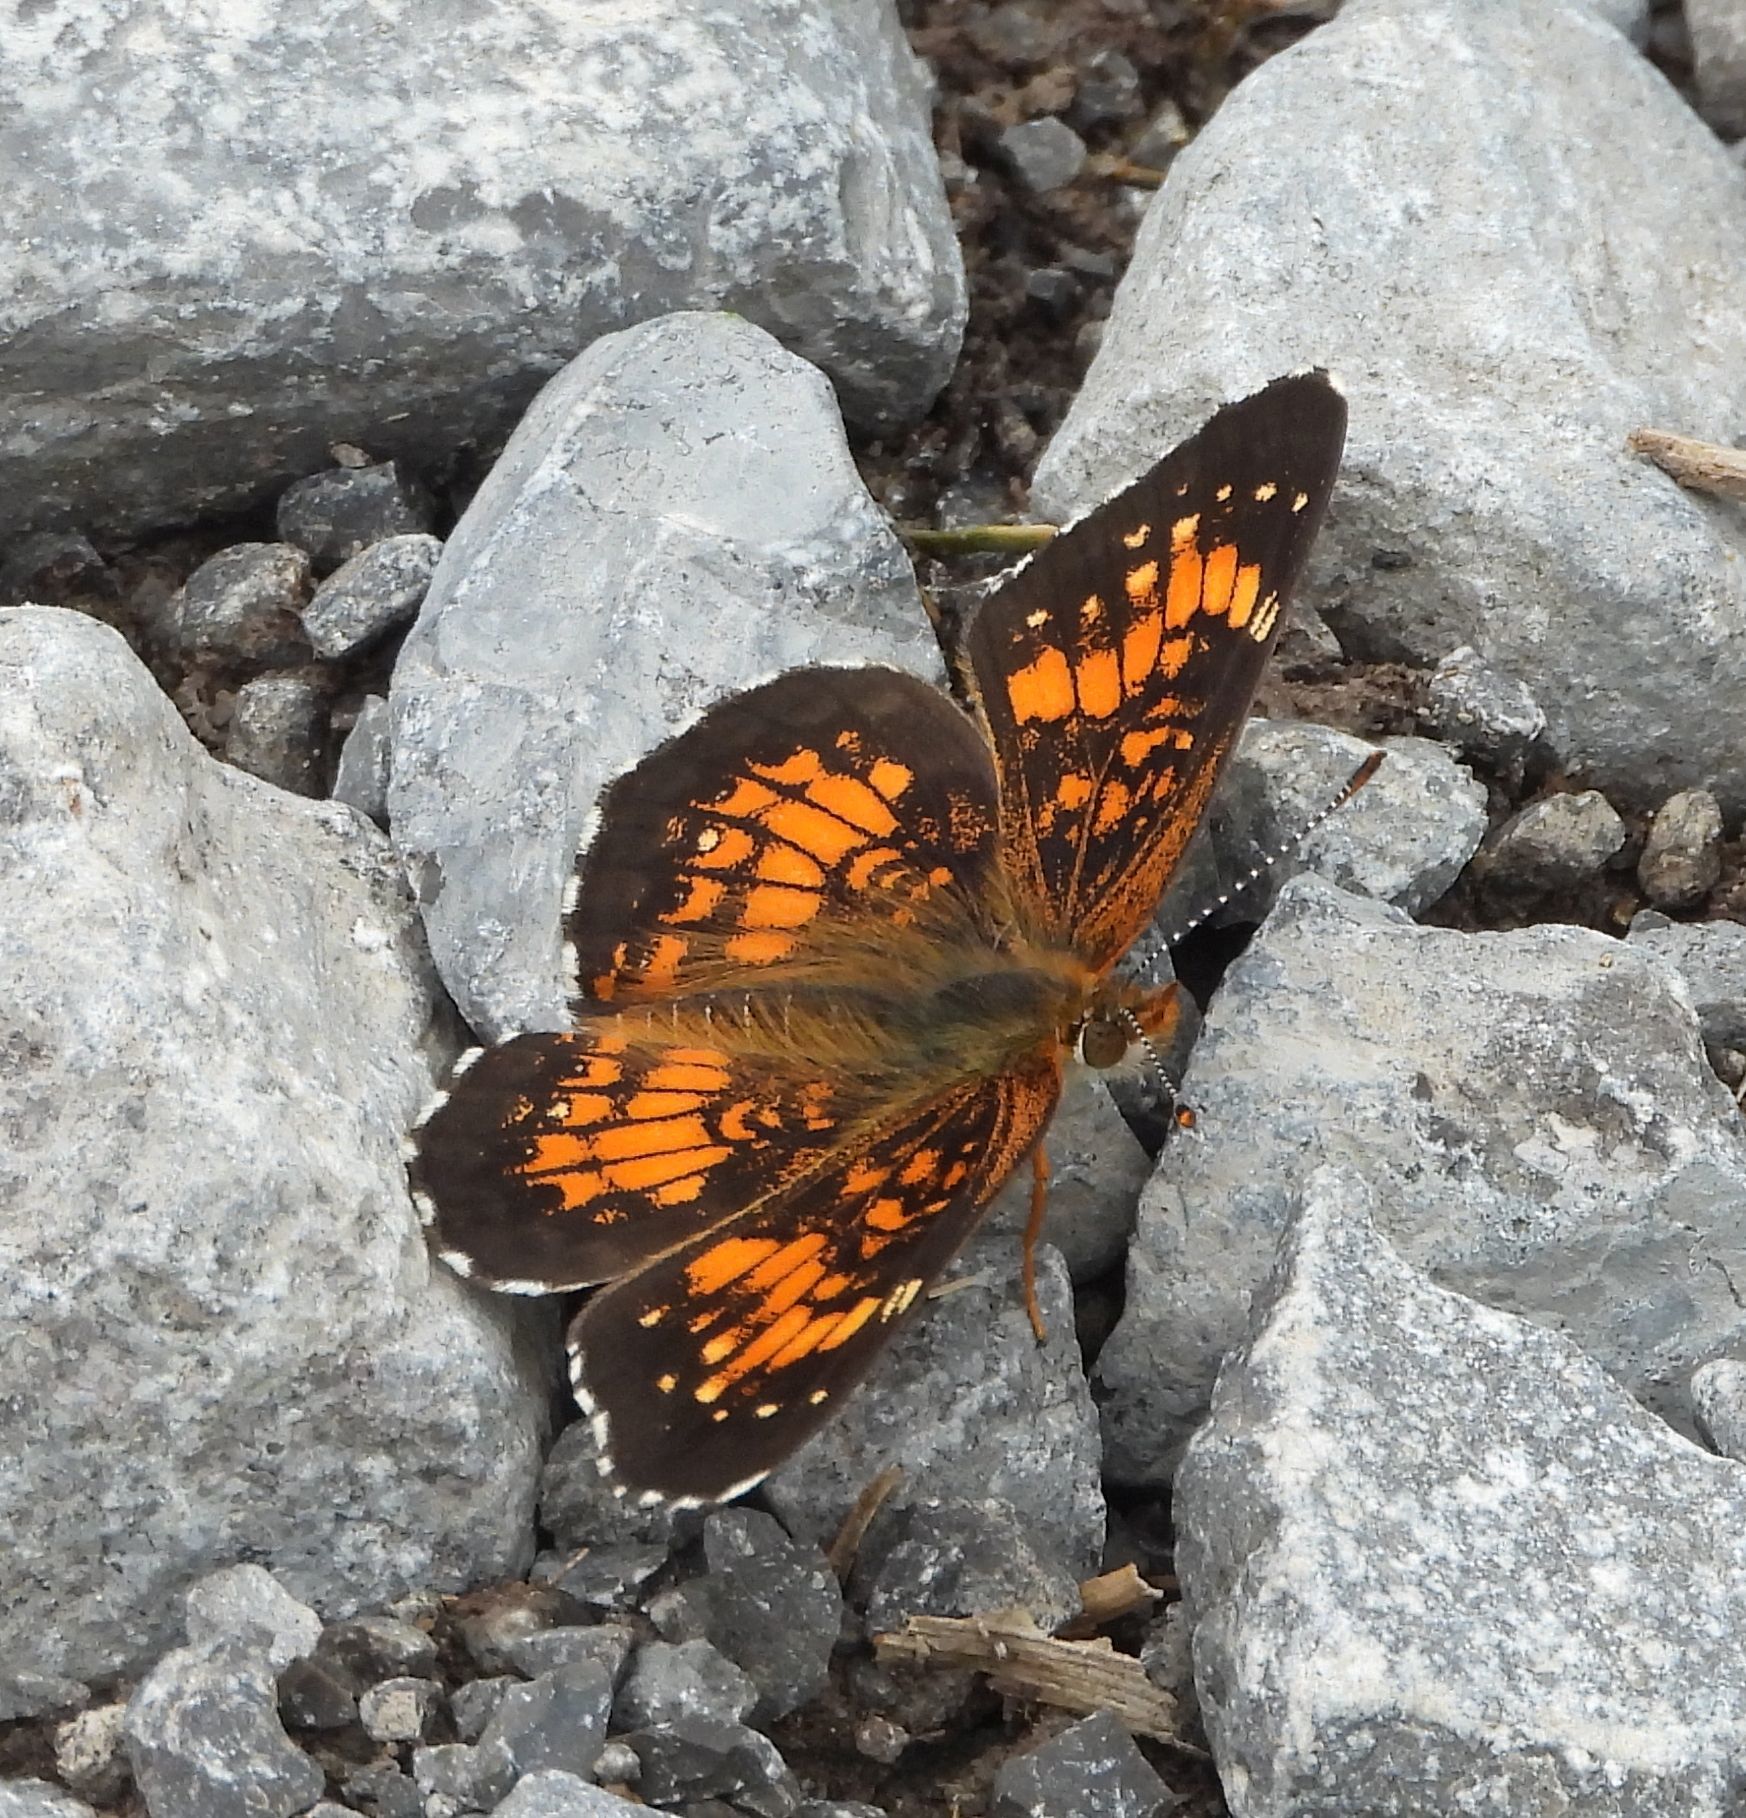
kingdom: Animalia
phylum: Arthropoda
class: Insecta
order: Lepidoptera
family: Nymphalidae
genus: Chlosyne
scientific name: Chlosyne harrisii
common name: Harris's checkerspot
